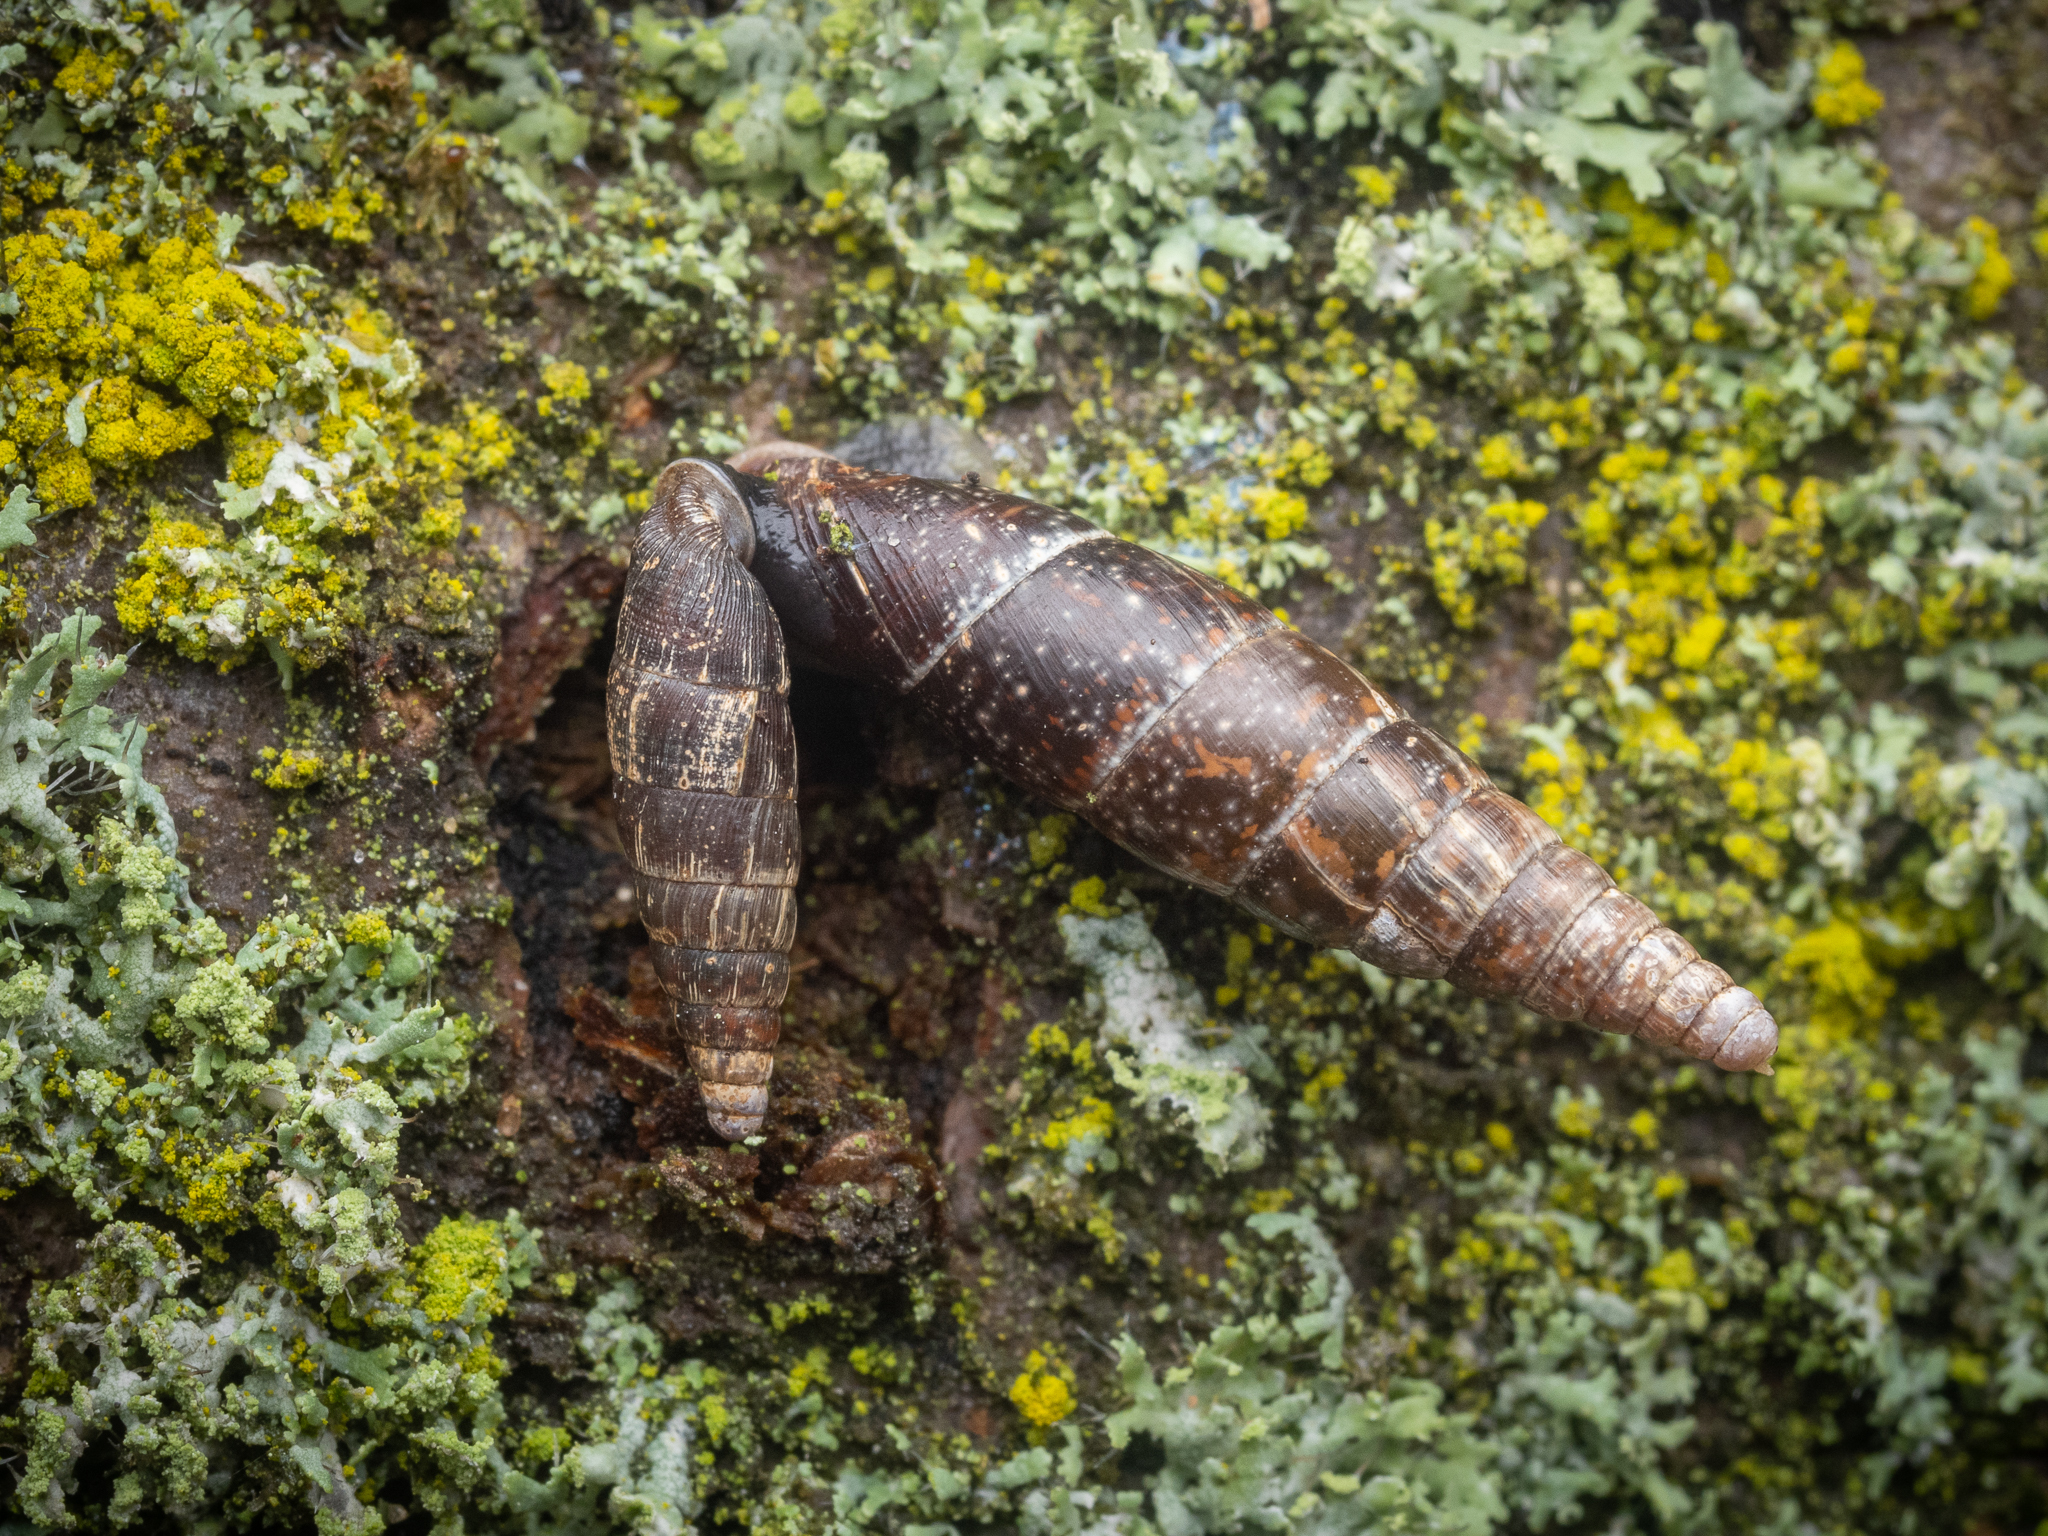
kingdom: Animalia
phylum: Mollusca
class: Gastropoda
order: Stylommatophora
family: Clausiliidae
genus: Cochlodina
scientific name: Cochlodina laminata
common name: Plaited door snail
